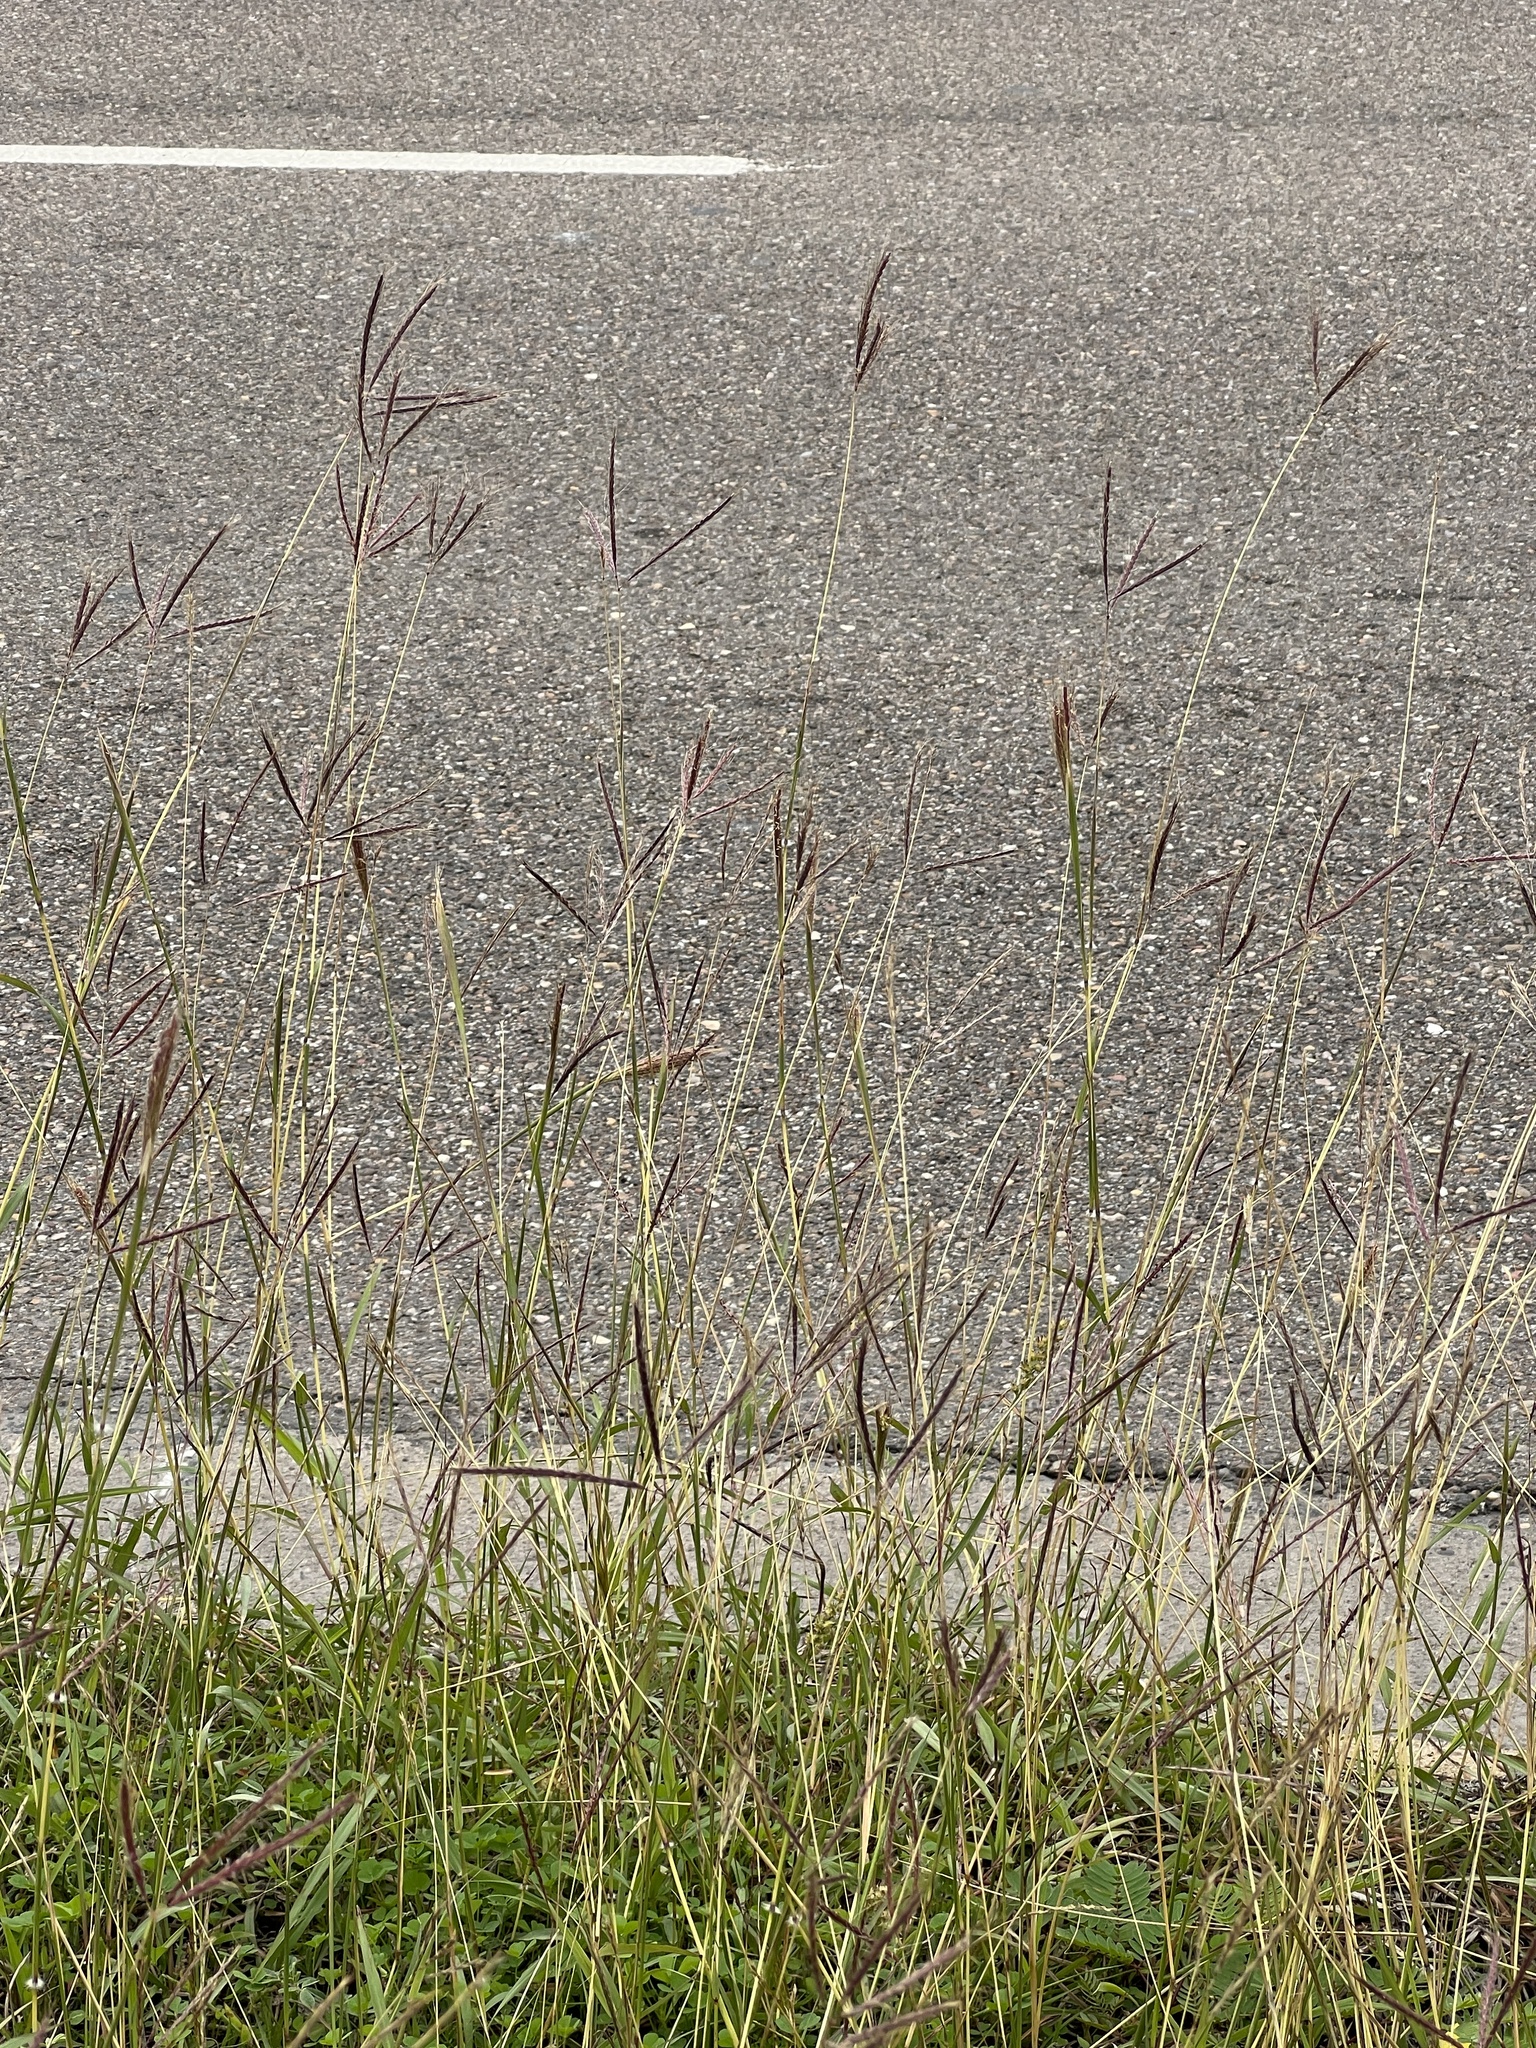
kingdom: Plantae
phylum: Tracheophyta
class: Liliopsida
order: Poales
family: Poaceae
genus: Dichanthium
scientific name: Dichanthium annulatum
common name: Kleberg's bluestem
